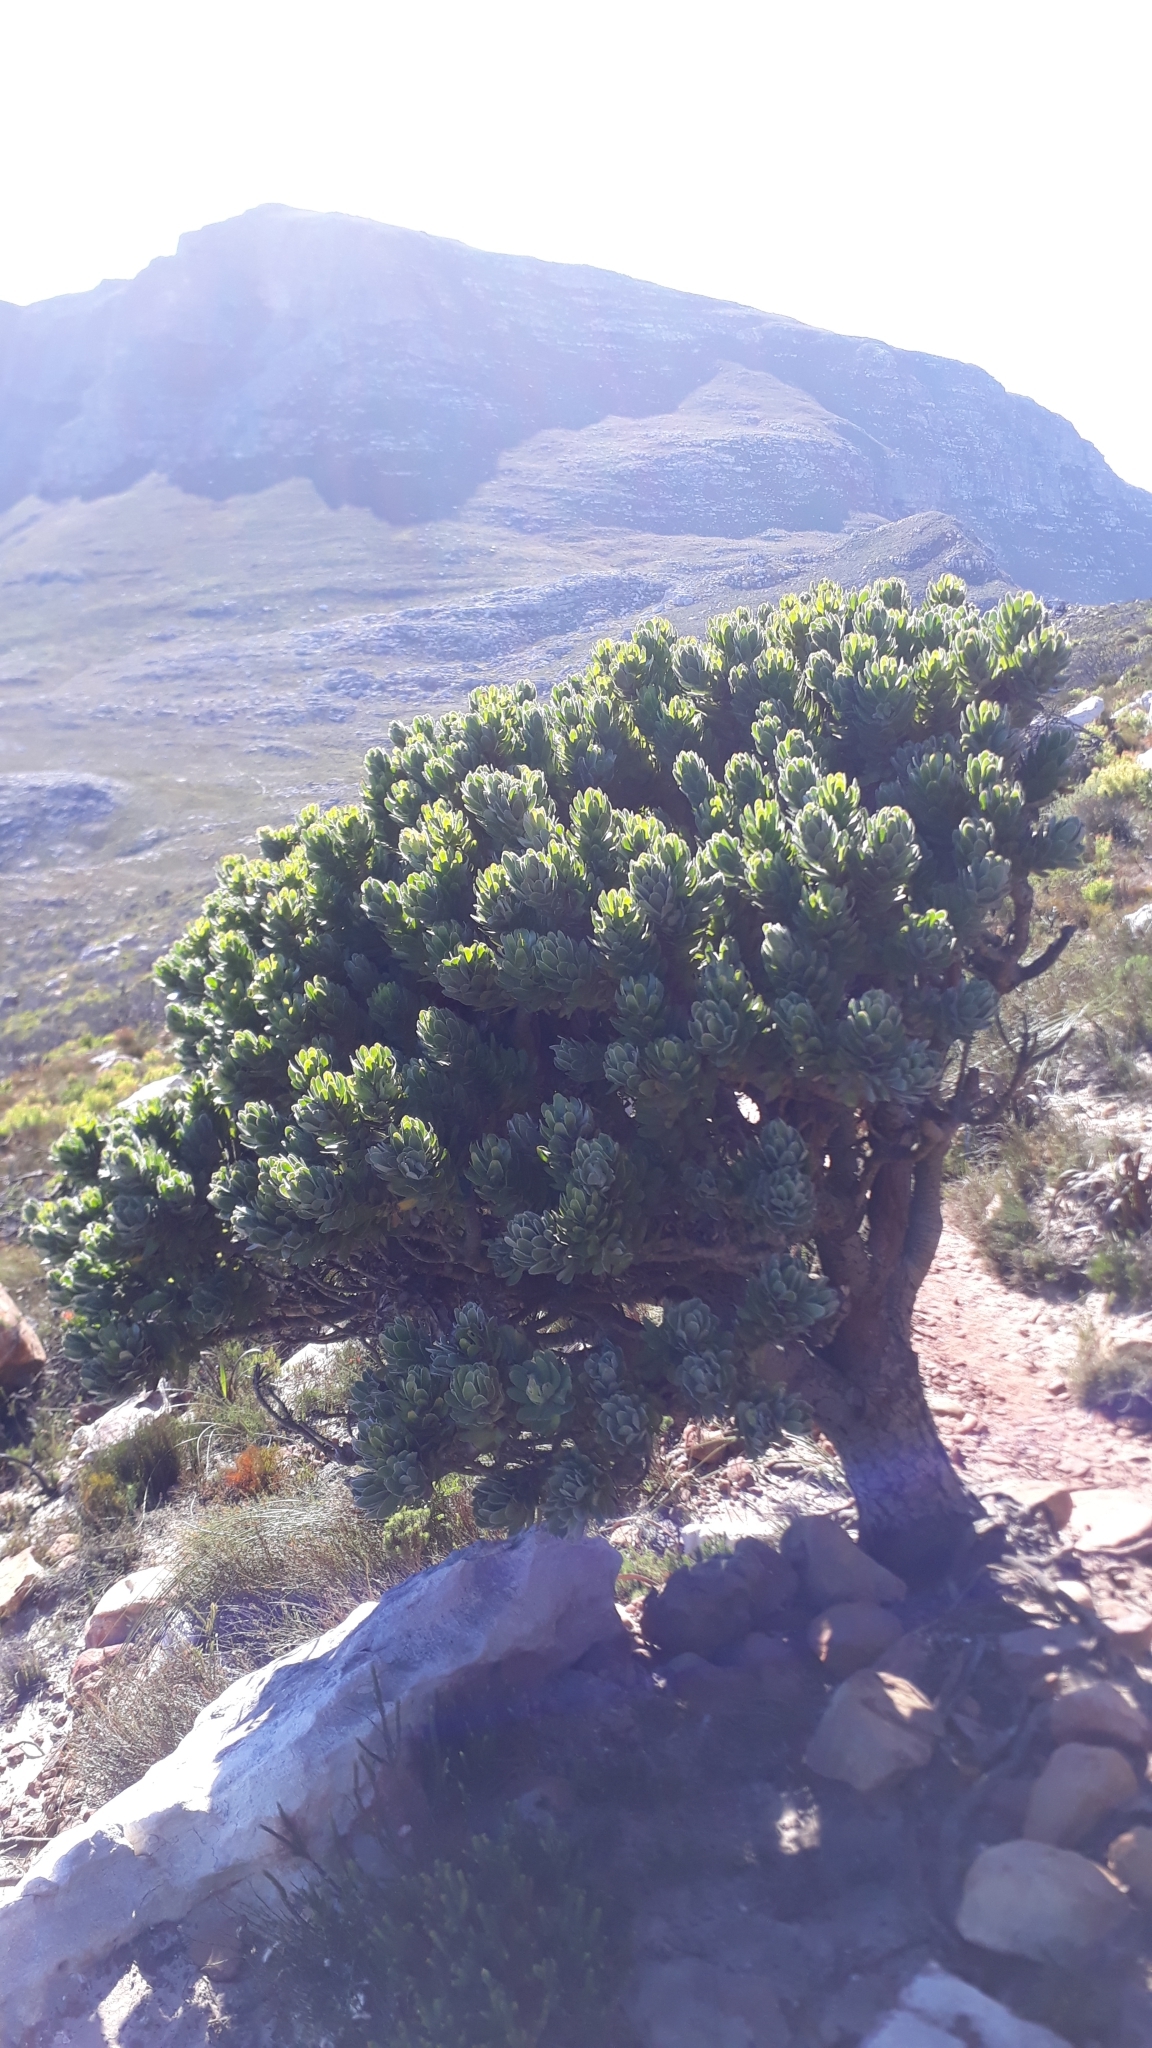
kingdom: Plantae
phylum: Tracheophyta
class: Magnoliopsida
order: Proteales
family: Proteaceae
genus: Mimetes
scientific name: Mimetes fimbriifolius
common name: Fringed bottlebrush
